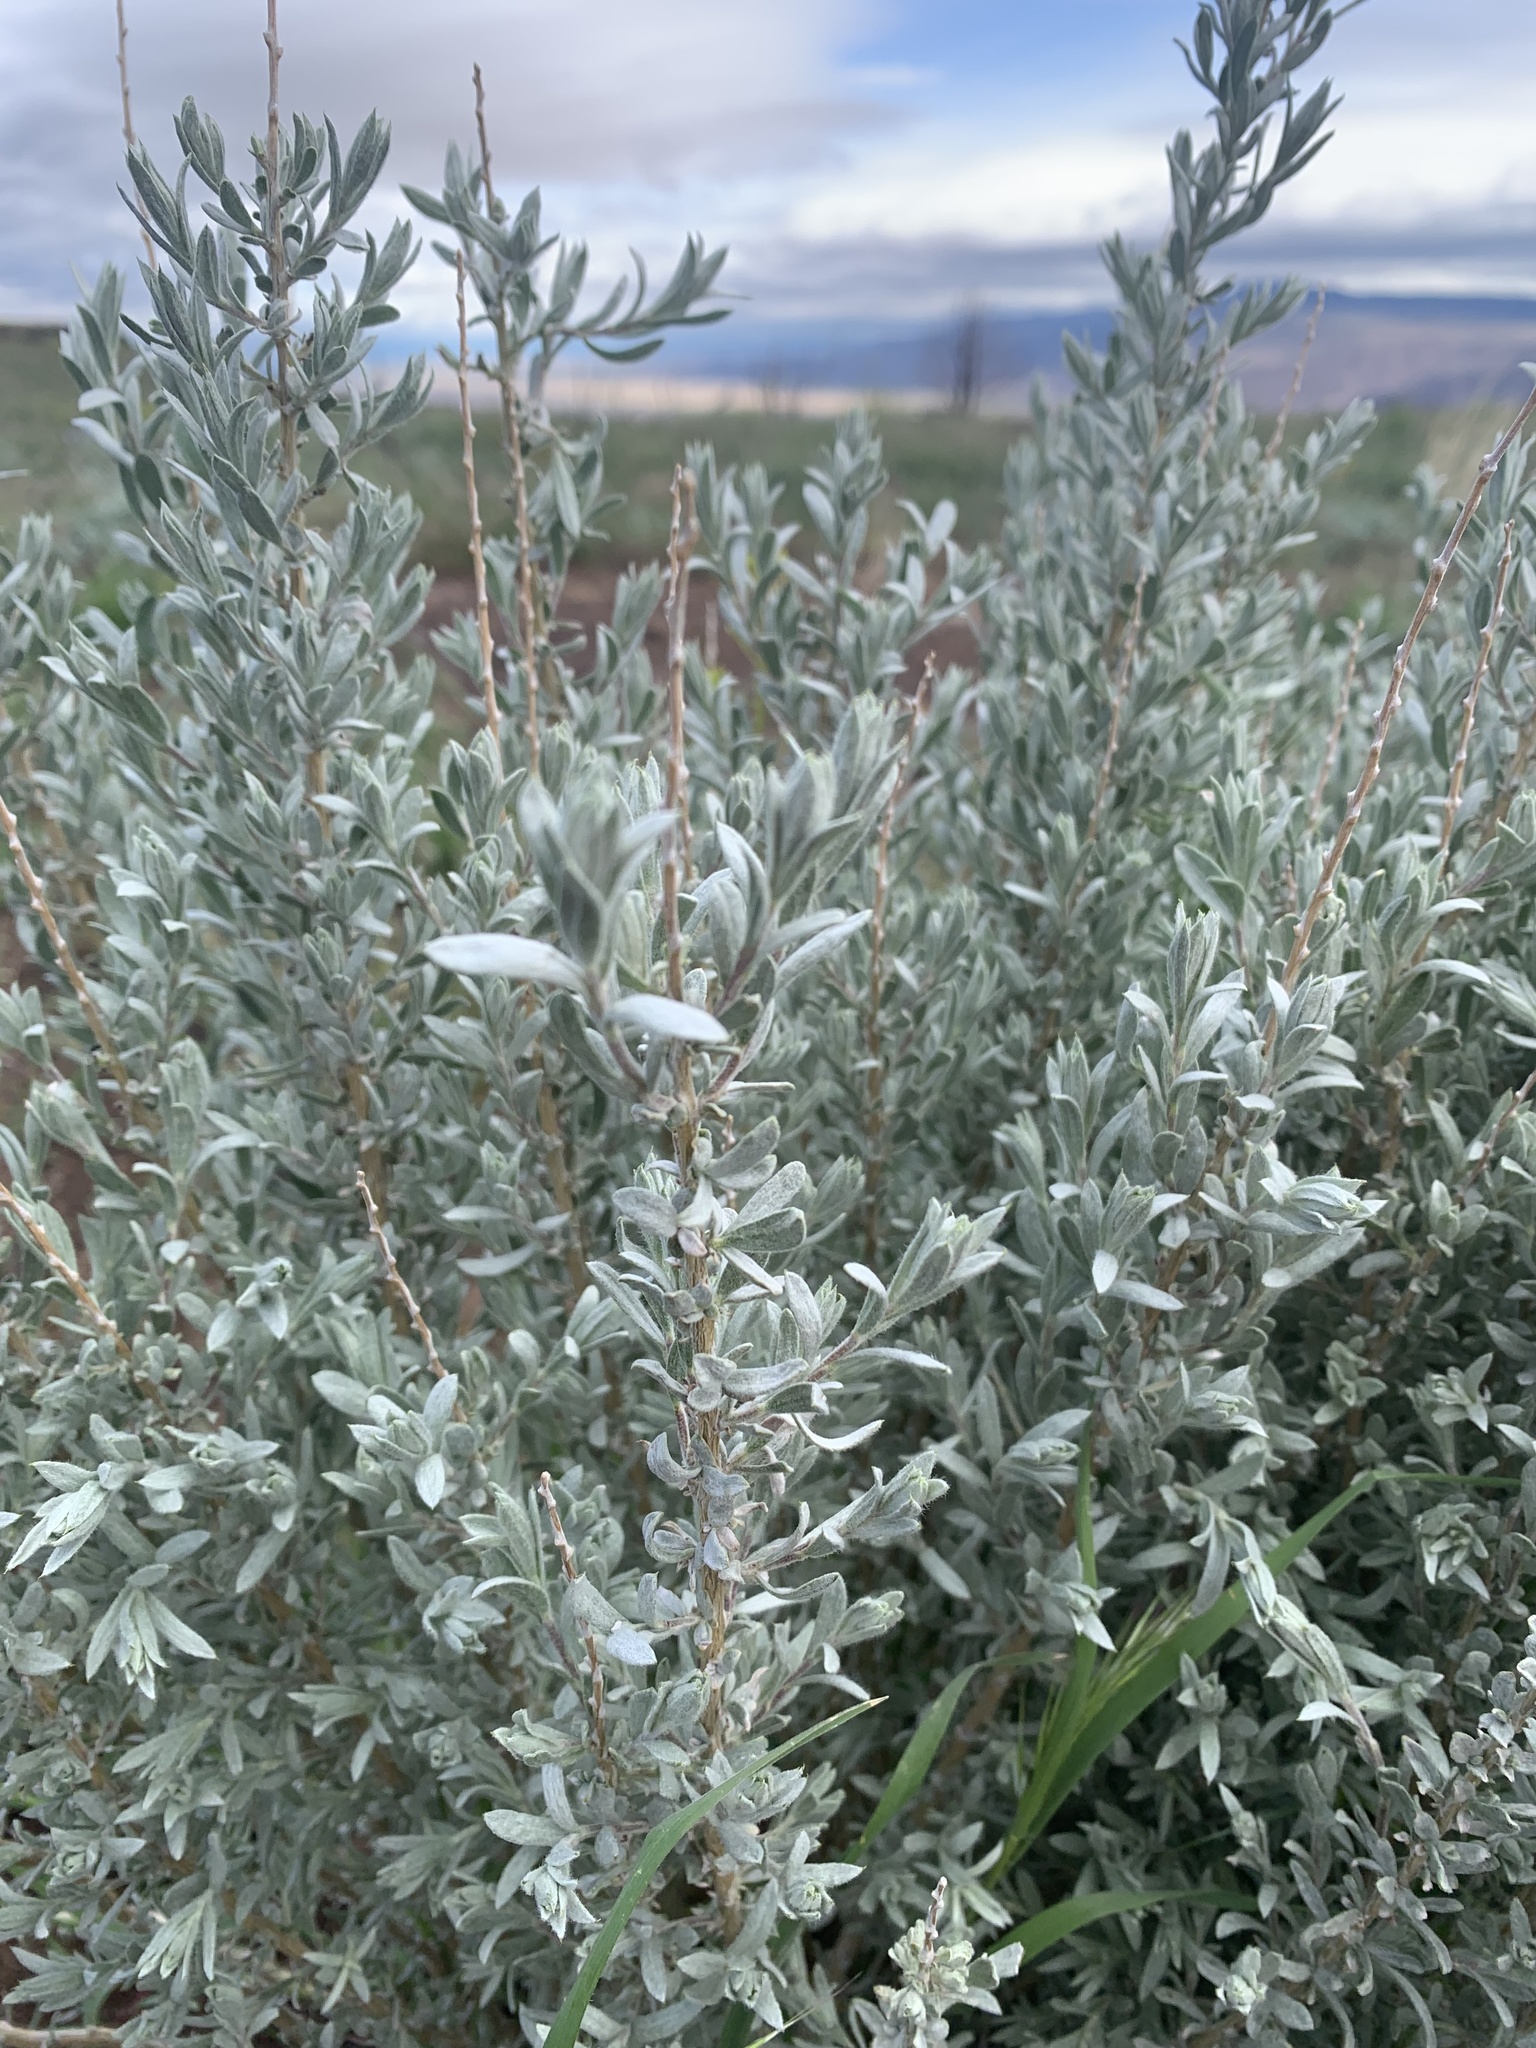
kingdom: Plantae
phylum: Tracheophyta
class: Magnoliopsida
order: Asterales
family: Asteraceae
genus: Tetradymia
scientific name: Tetradymia canescens
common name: Spineless horsebrush
